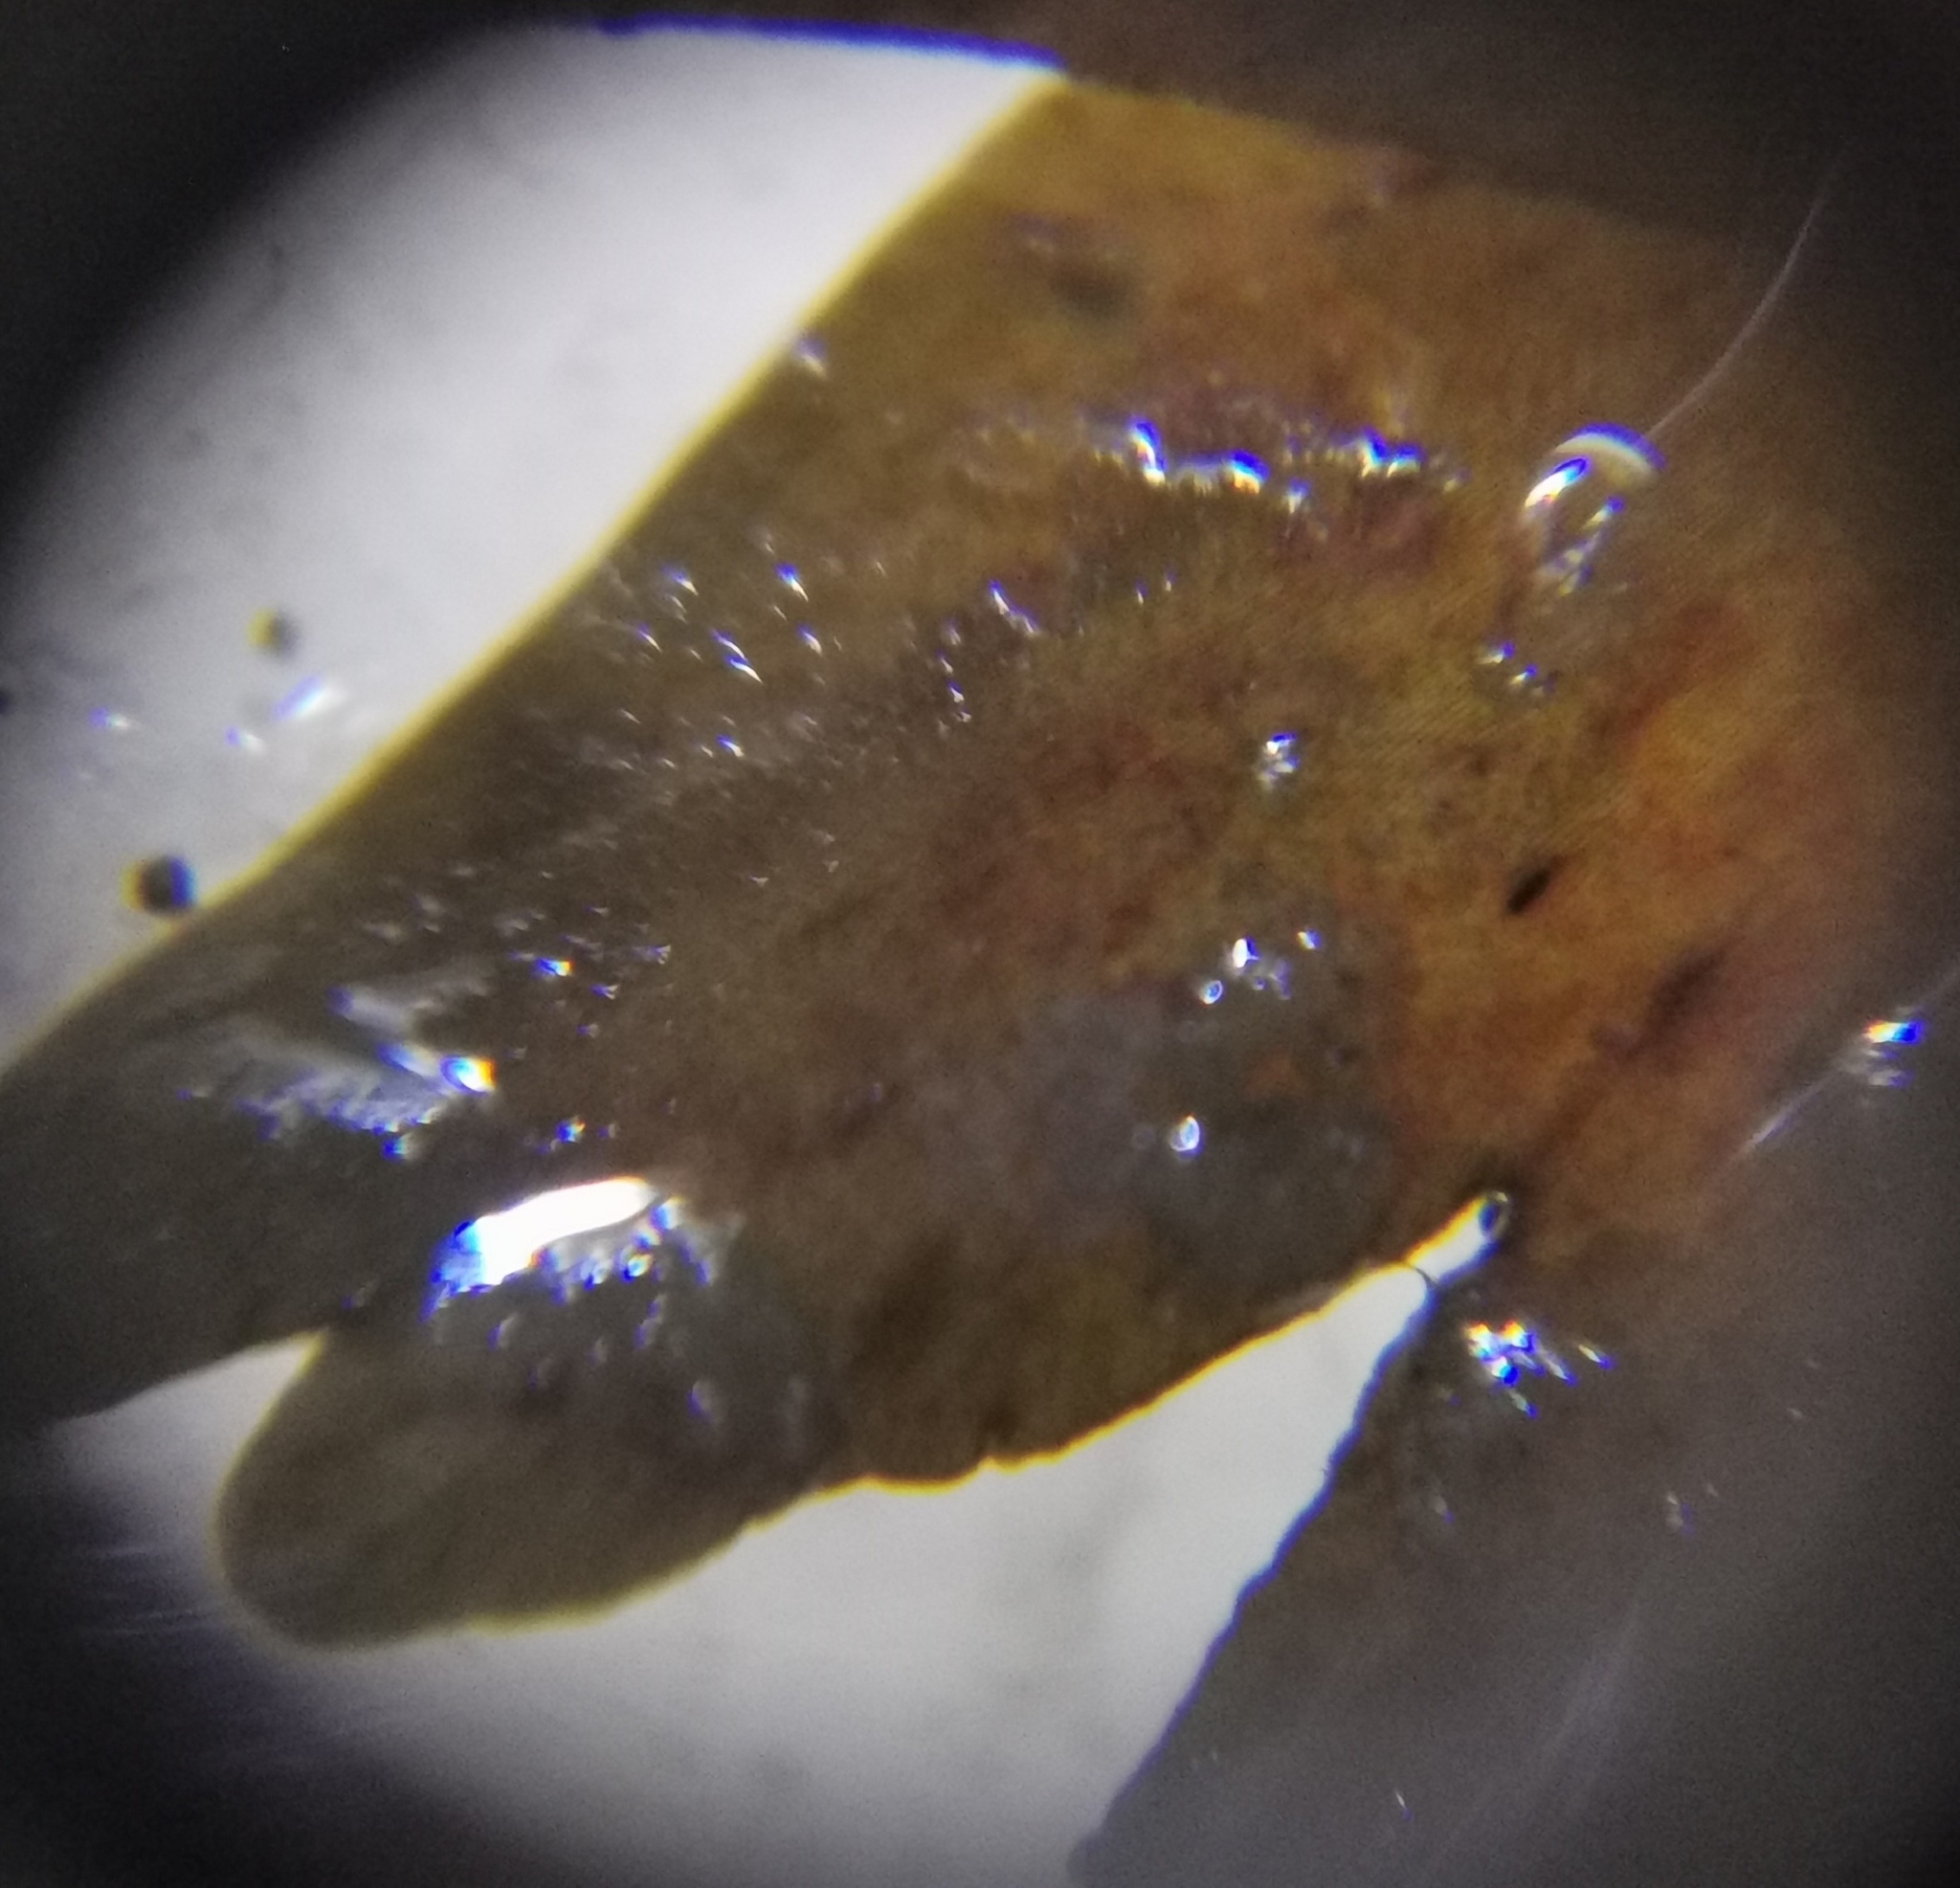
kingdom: Chromista
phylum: Ochrophyta
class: Phaeophyceae
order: Sporochnales
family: Sporochnaceae
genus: Carpomitra
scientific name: Carpomitra costata
